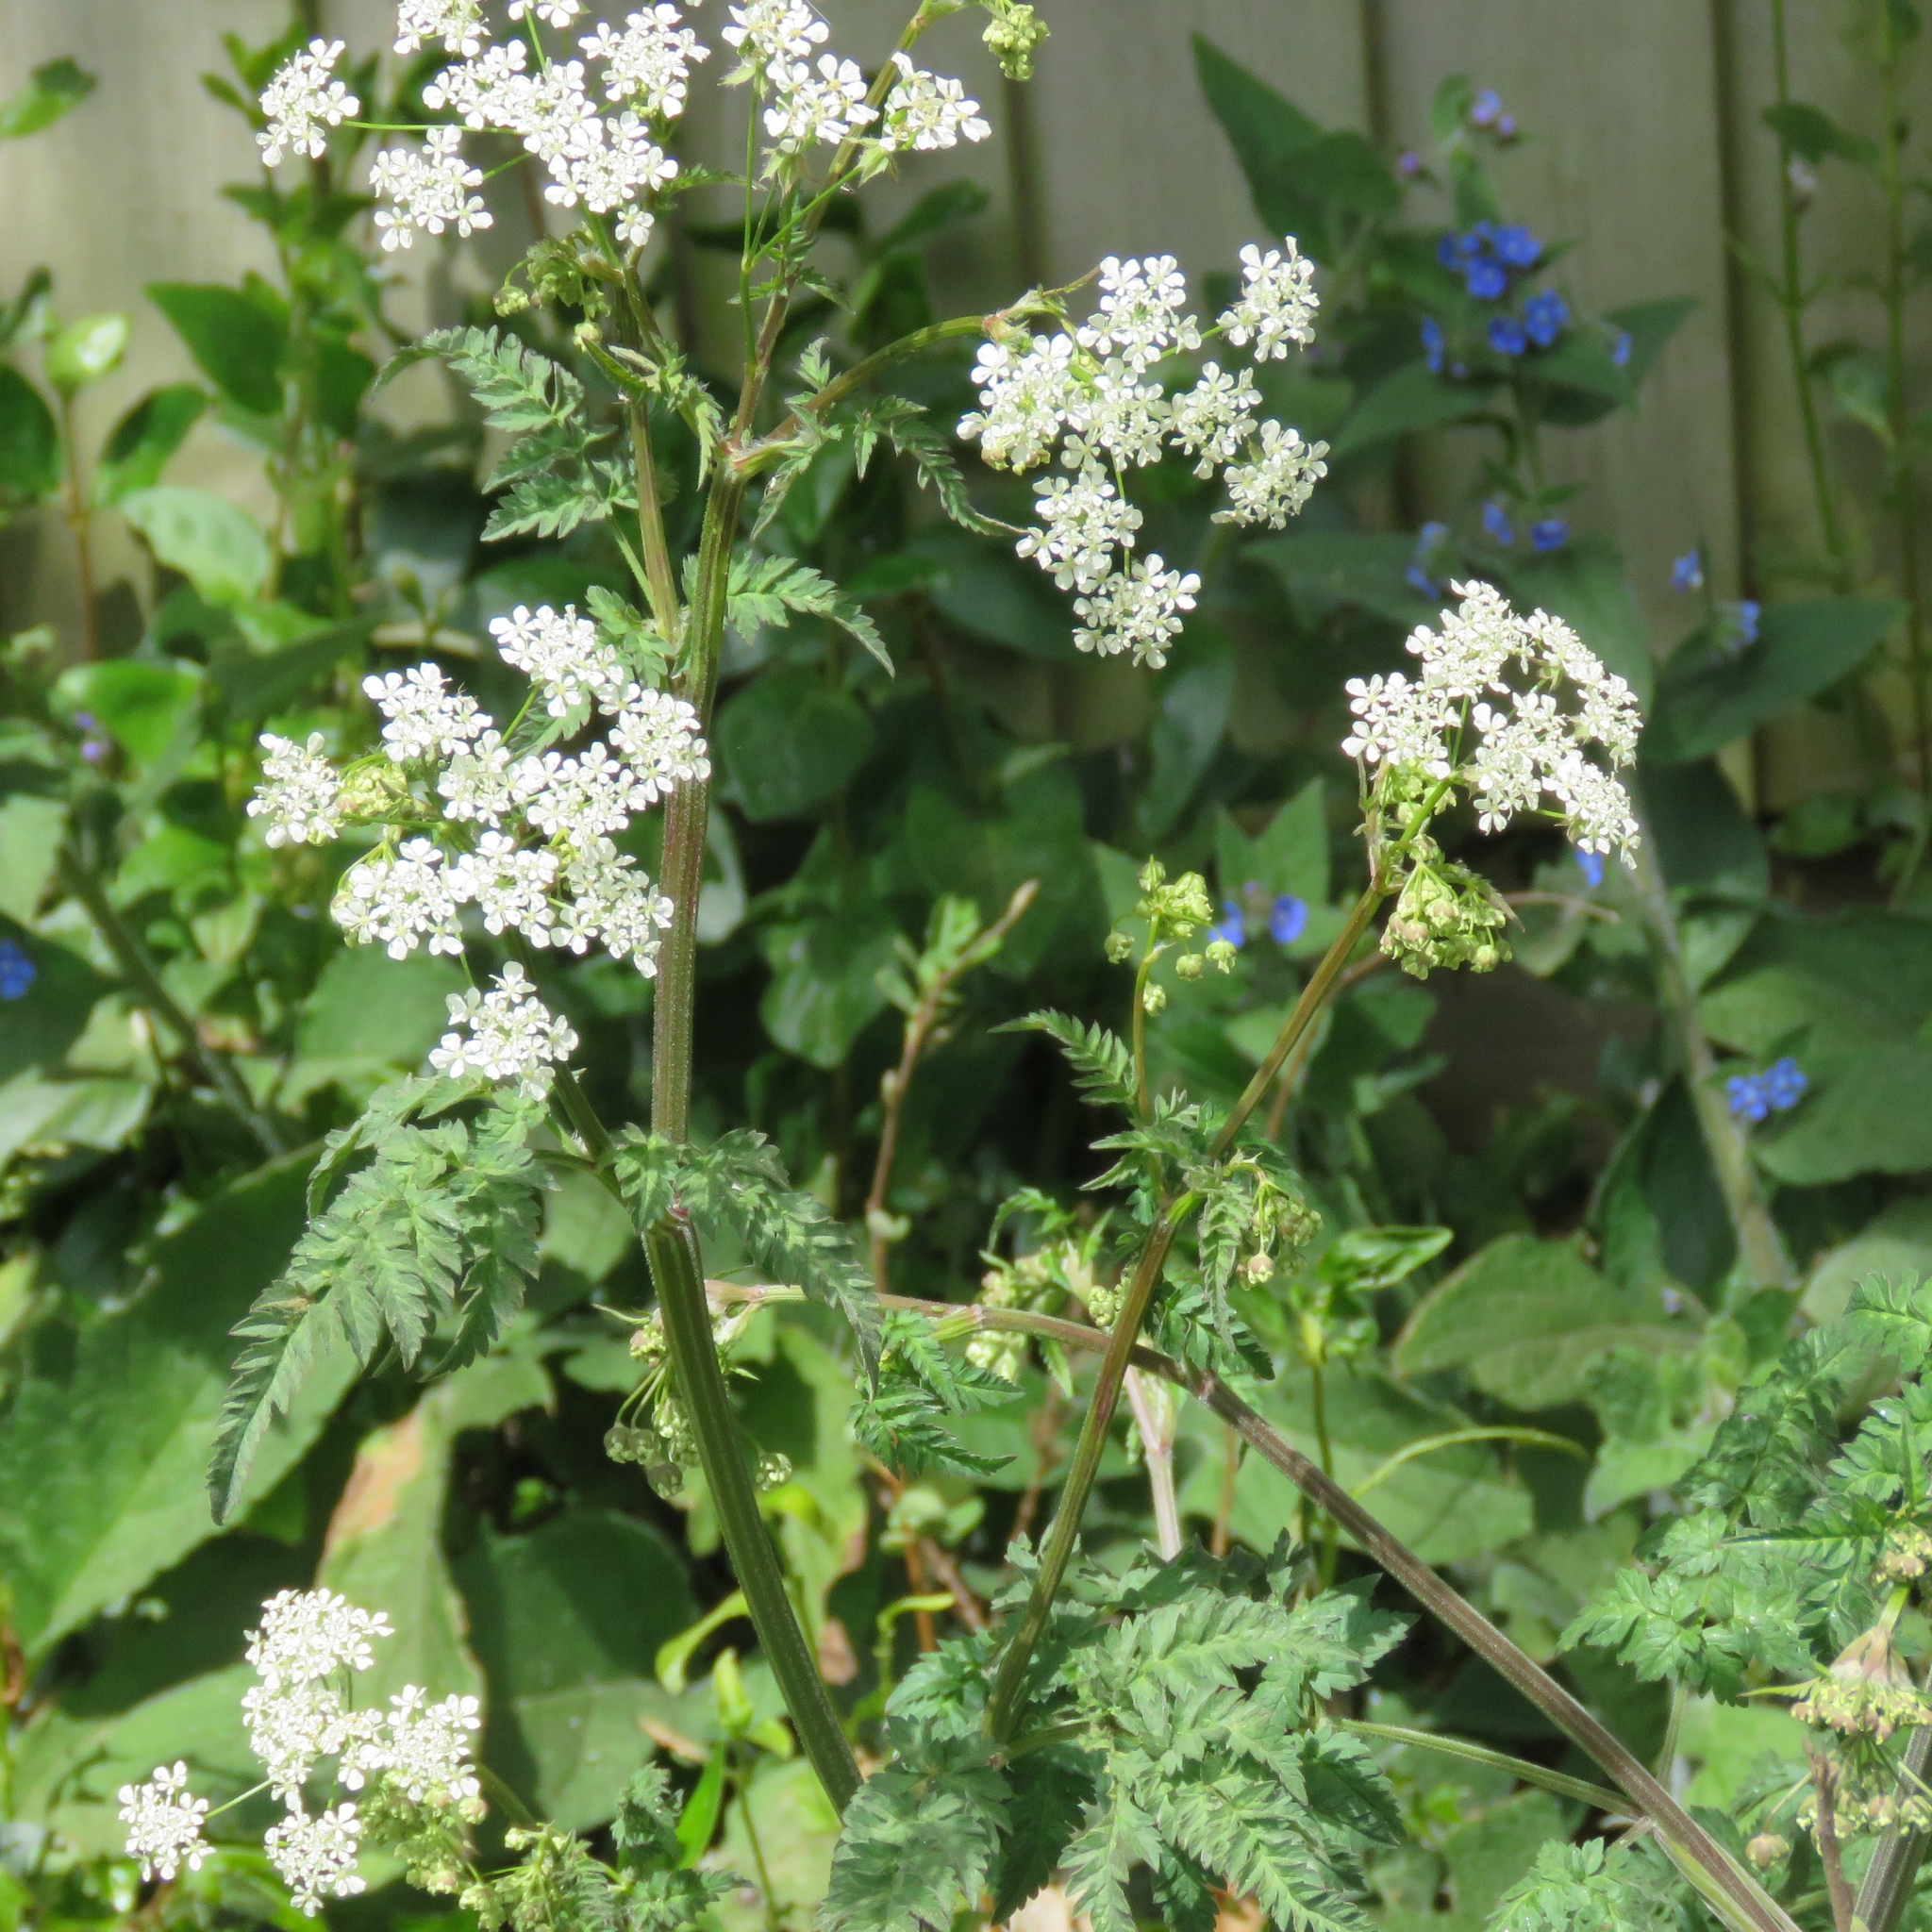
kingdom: Plantae
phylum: Tracheophyta
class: Magnoliopsida
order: Apiales
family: Apiaceae
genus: Anthriscus
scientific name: Anthriscus sylvestris
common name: Cow parsley
